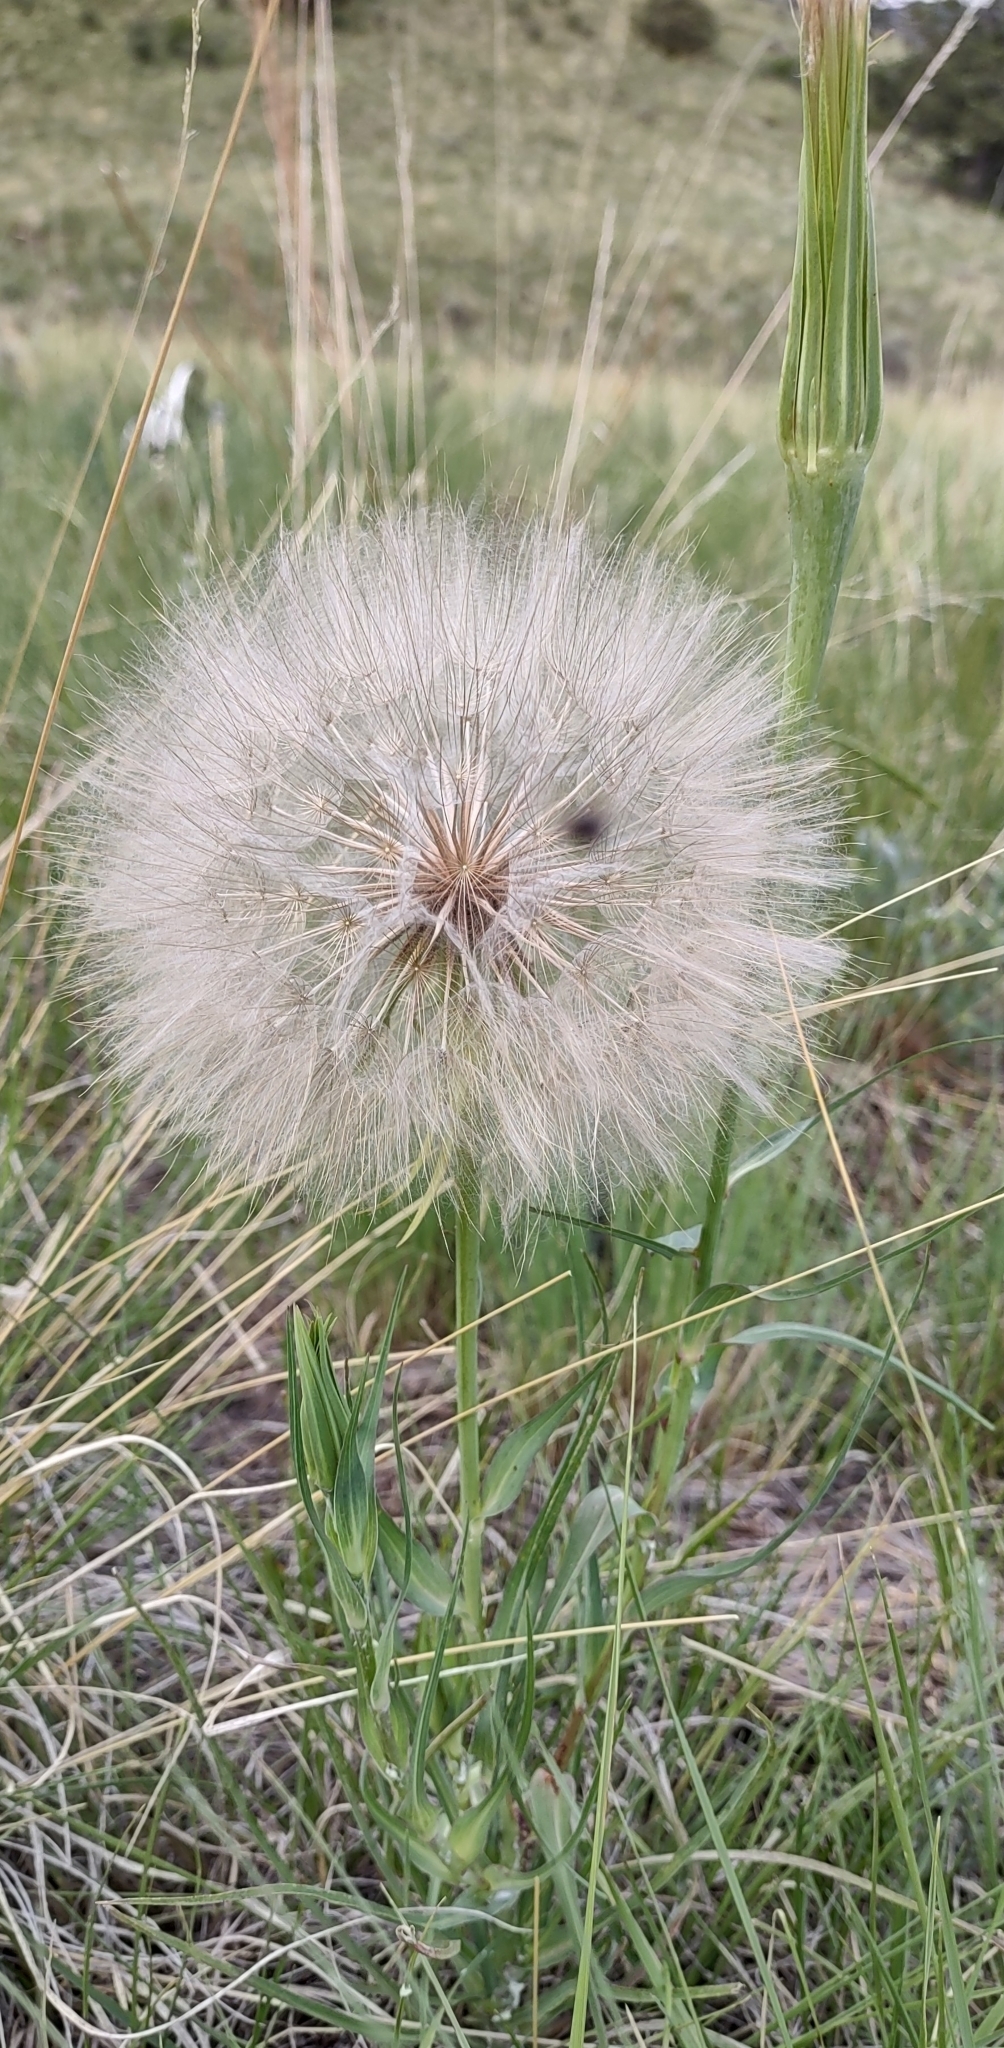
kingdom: Plantae
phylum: Tracheophyta
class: Magnoliopsida
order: Asterales
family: Asteraceae
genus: Tragopogon
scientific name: Tragopogon pratensis
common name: Goat's-beard
